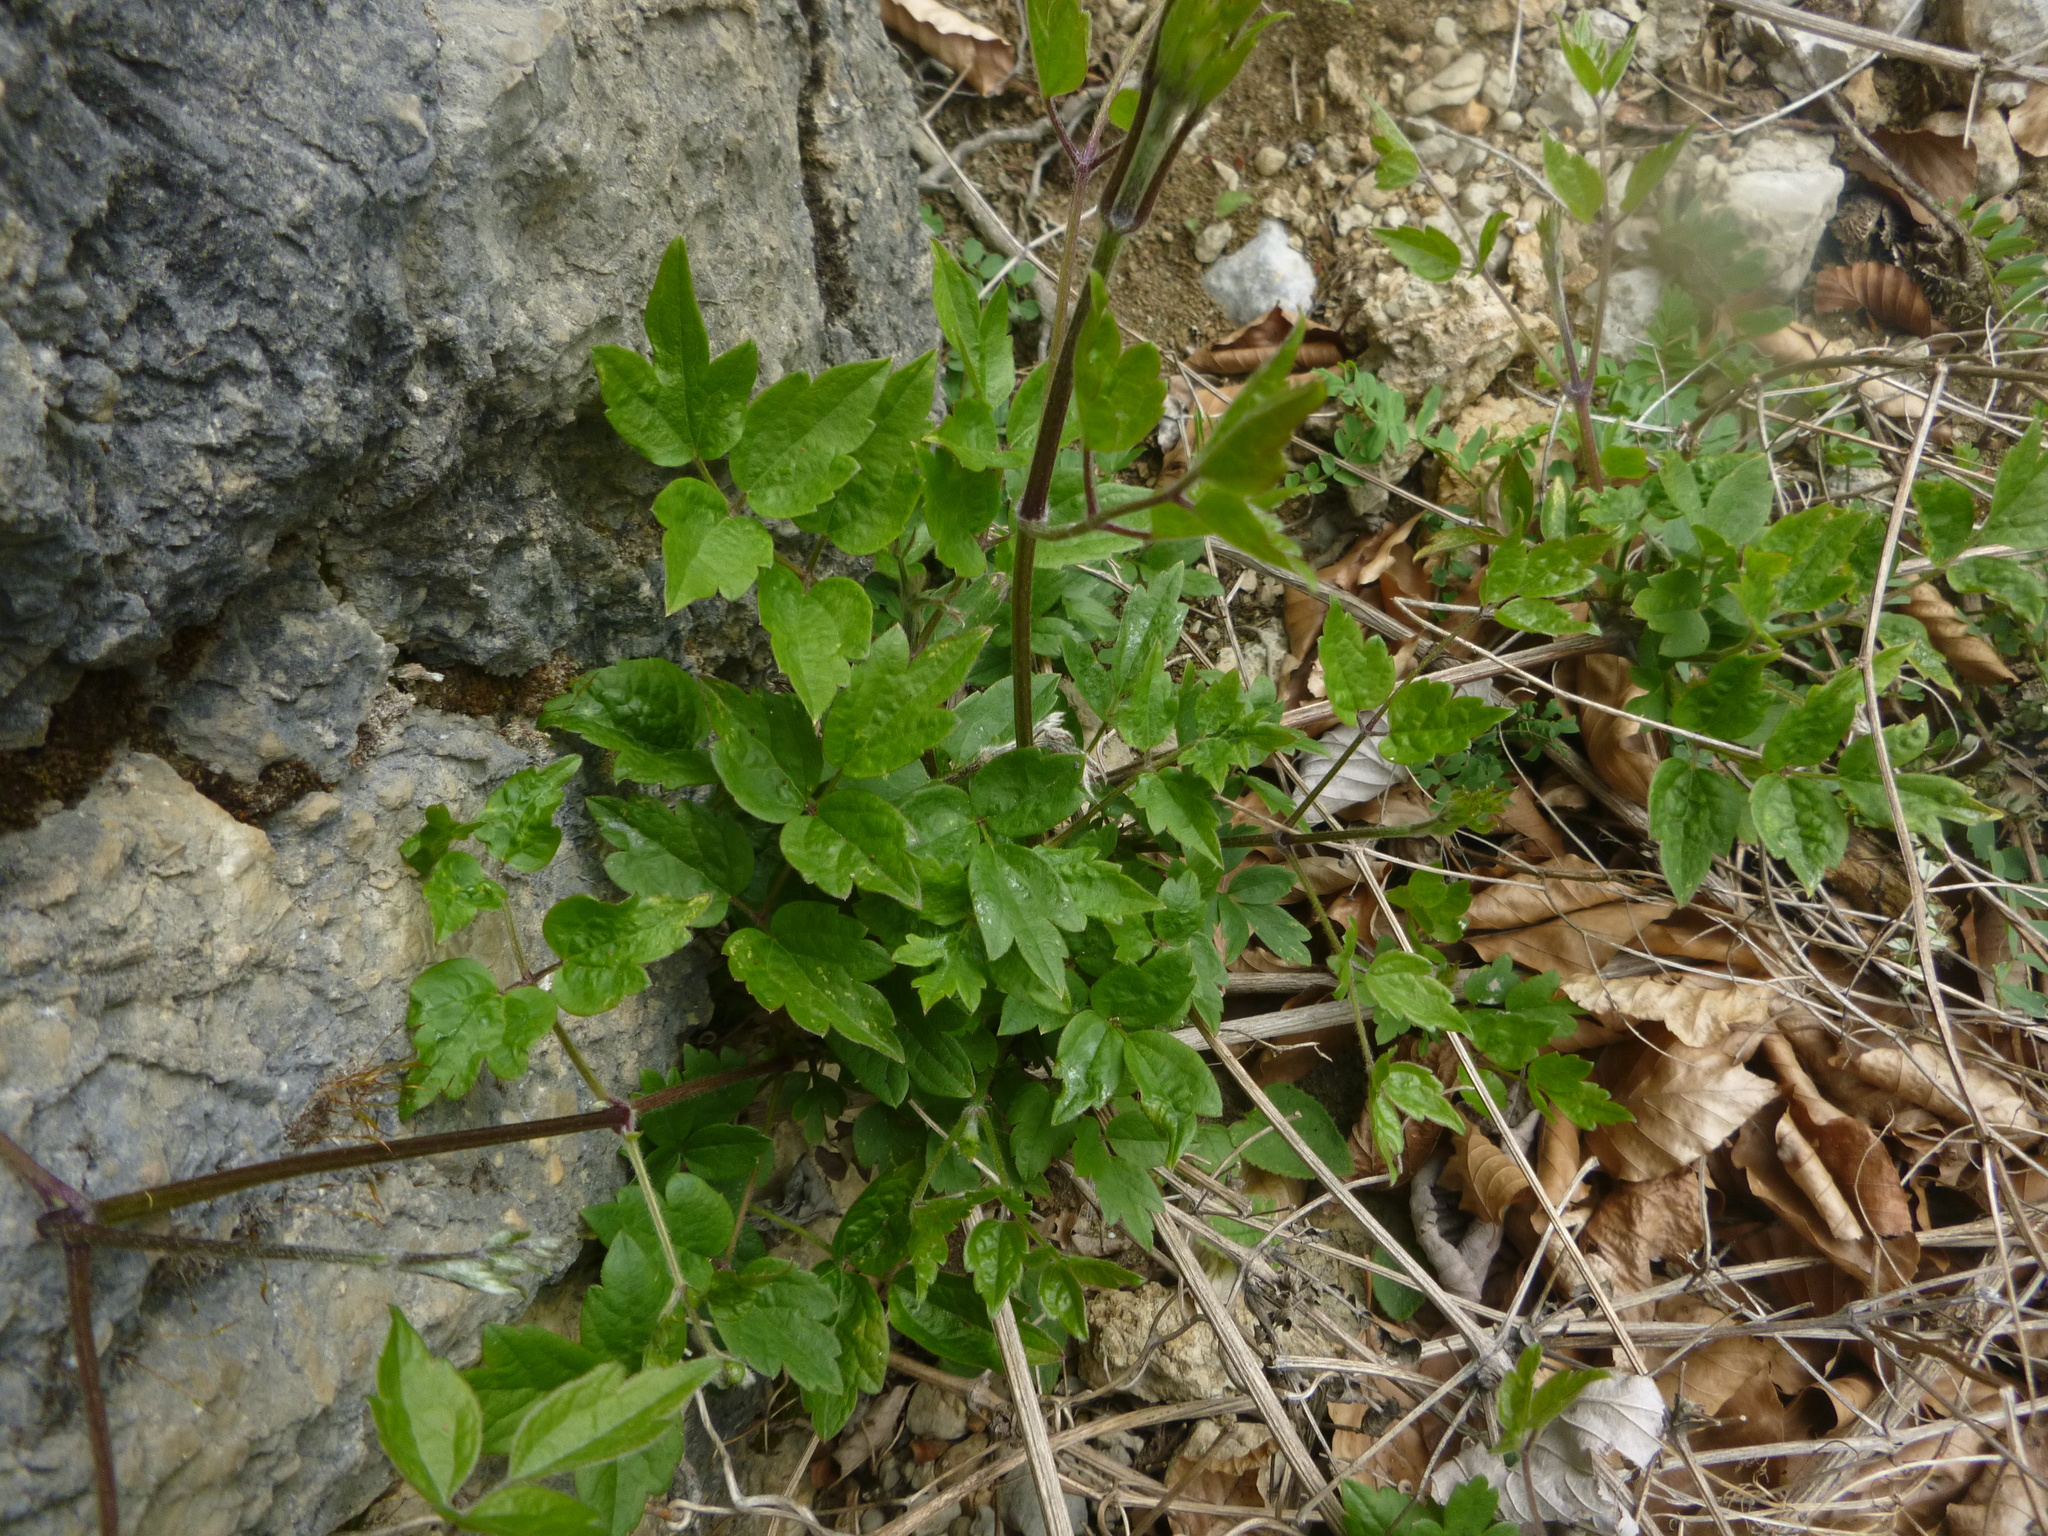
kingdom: Plantae
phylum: Tracheophyta
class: Magnoliopsida
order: Ranunculales
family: Ranunculaceae
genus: Clematis
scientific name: Clematis vitalba
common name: Evergreen clematis
